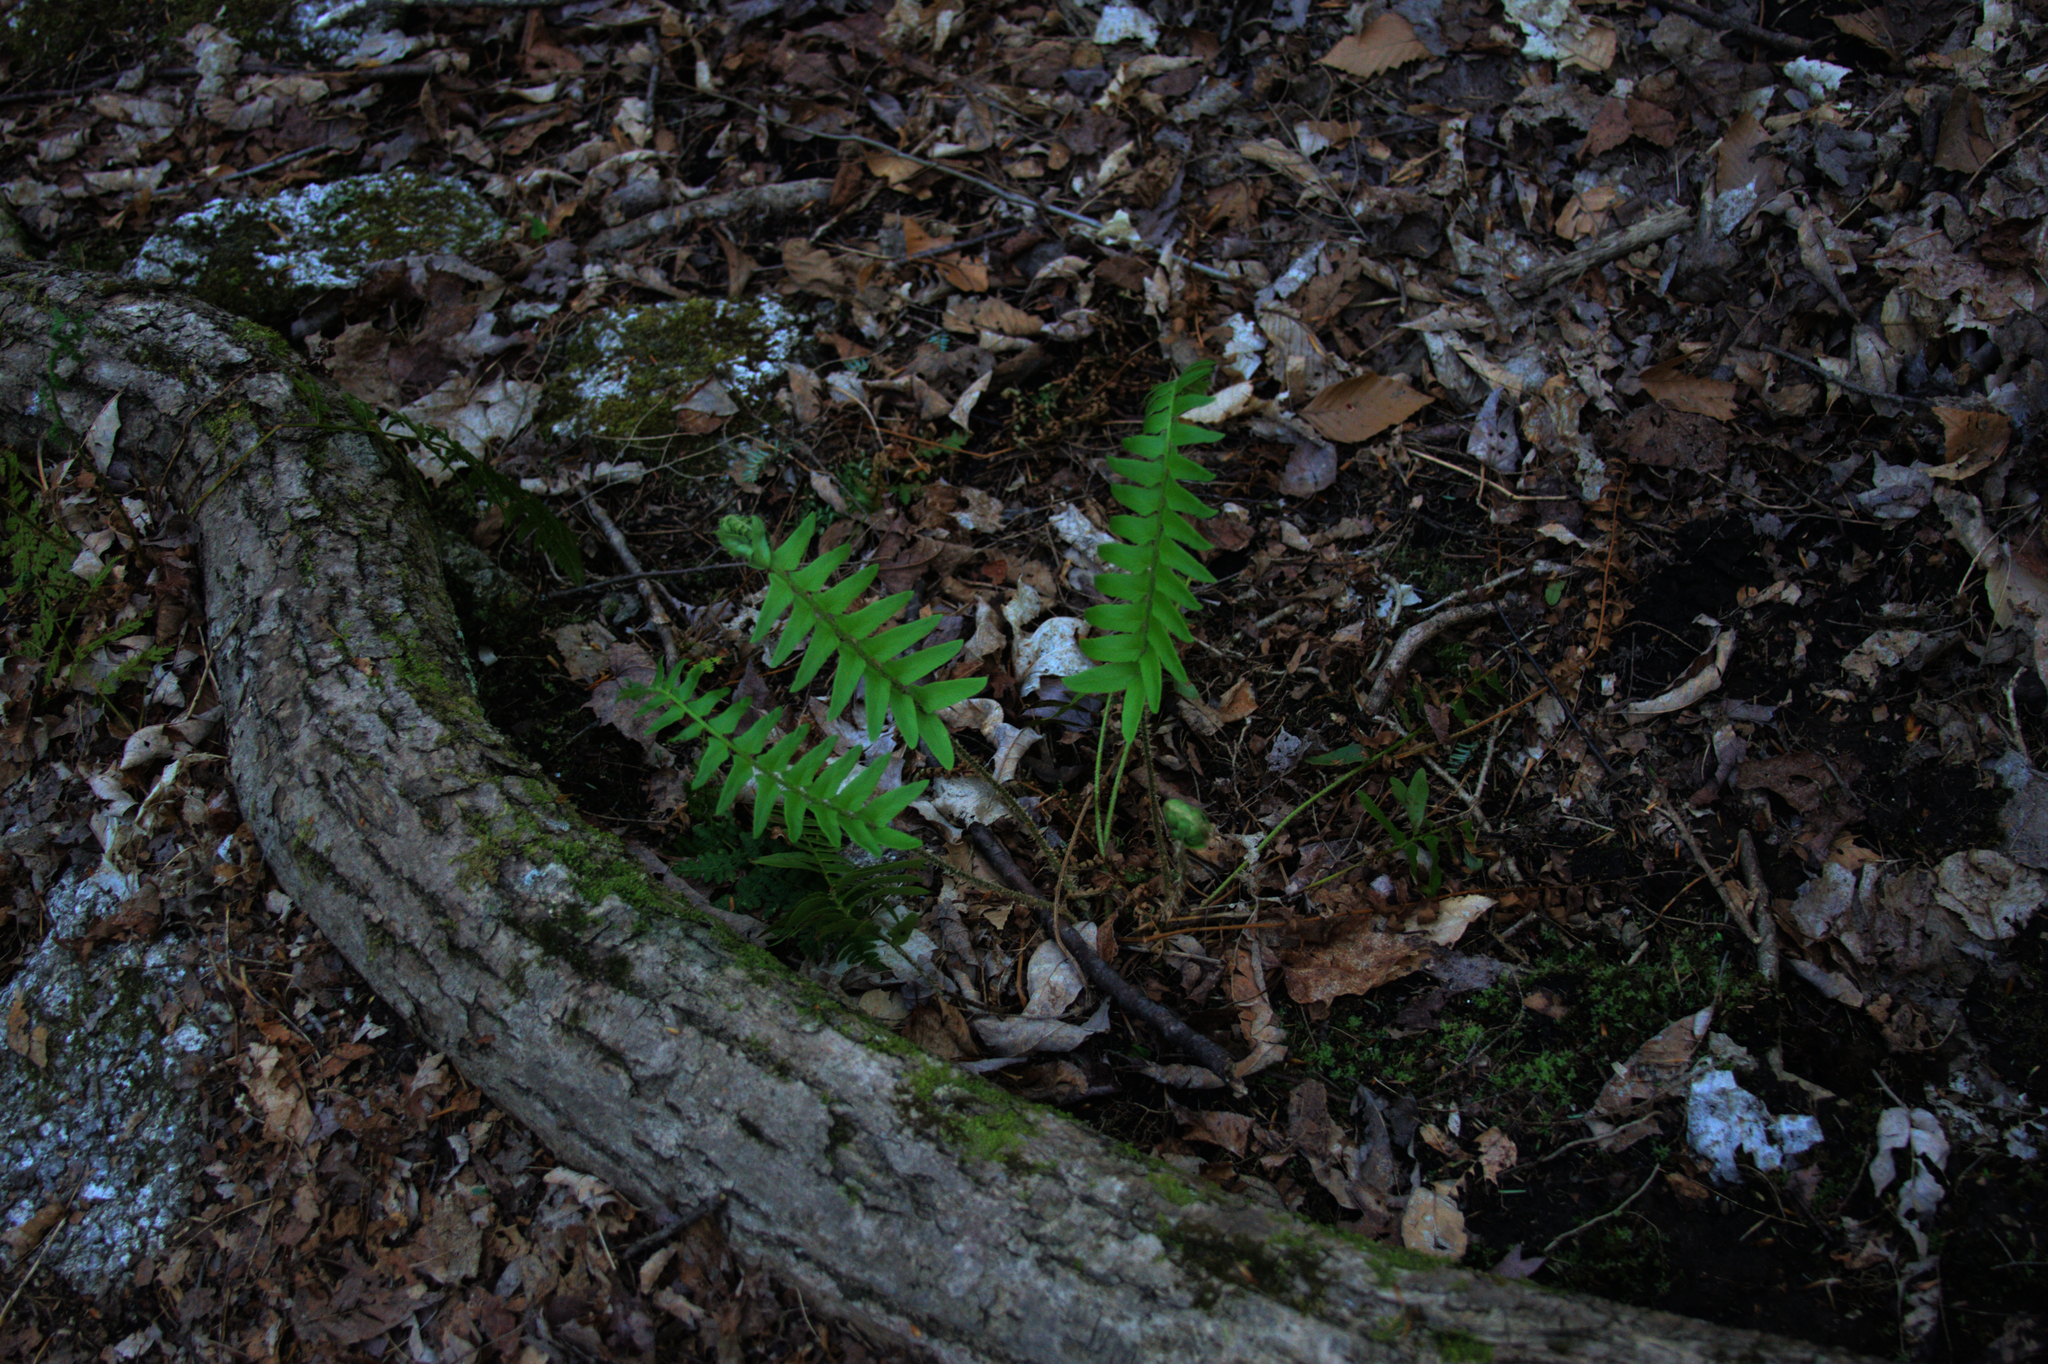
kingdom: Plantae
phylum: Tracheophyta
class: Polypodiopsida
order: Polypodiales
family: Dryopteridaceae
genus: Polystichum
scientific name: Polystichum acrostichoides
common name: Christmas fern
